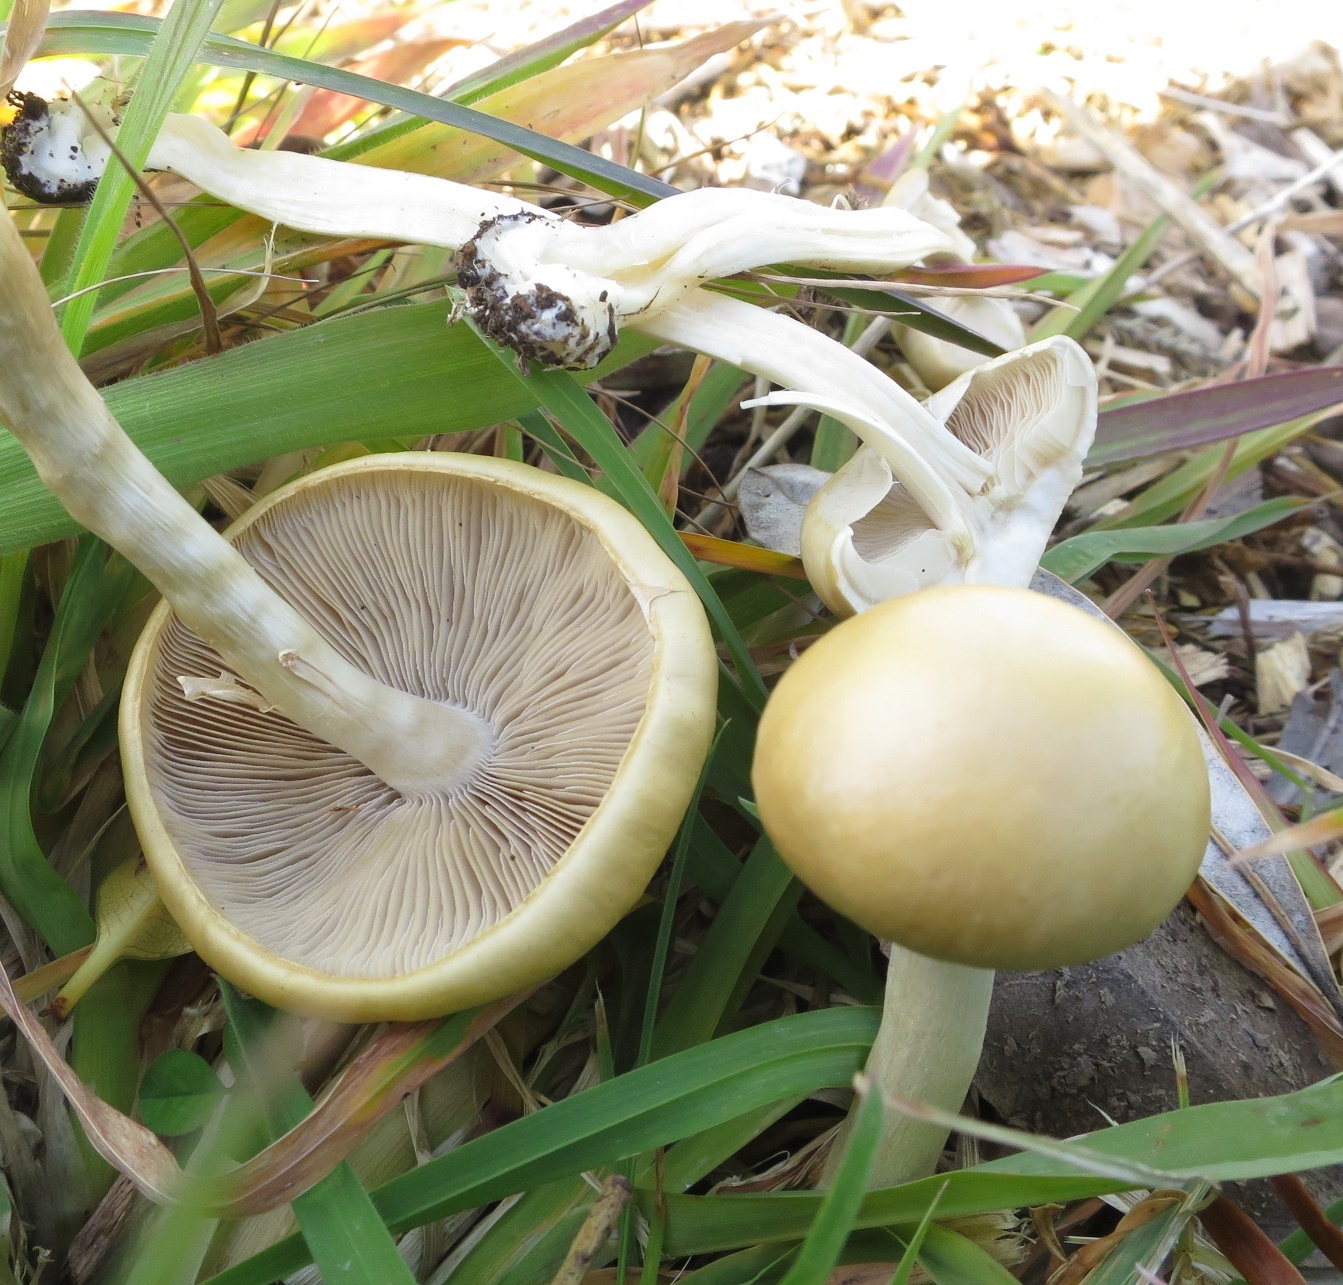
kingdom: Fungi
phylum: Basidiomycota
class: Agaricomycetes
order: Agaricales
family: Strophariaceae
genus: Agrocybe
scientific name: Agrocybe praecox
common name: Spring fieldcap
